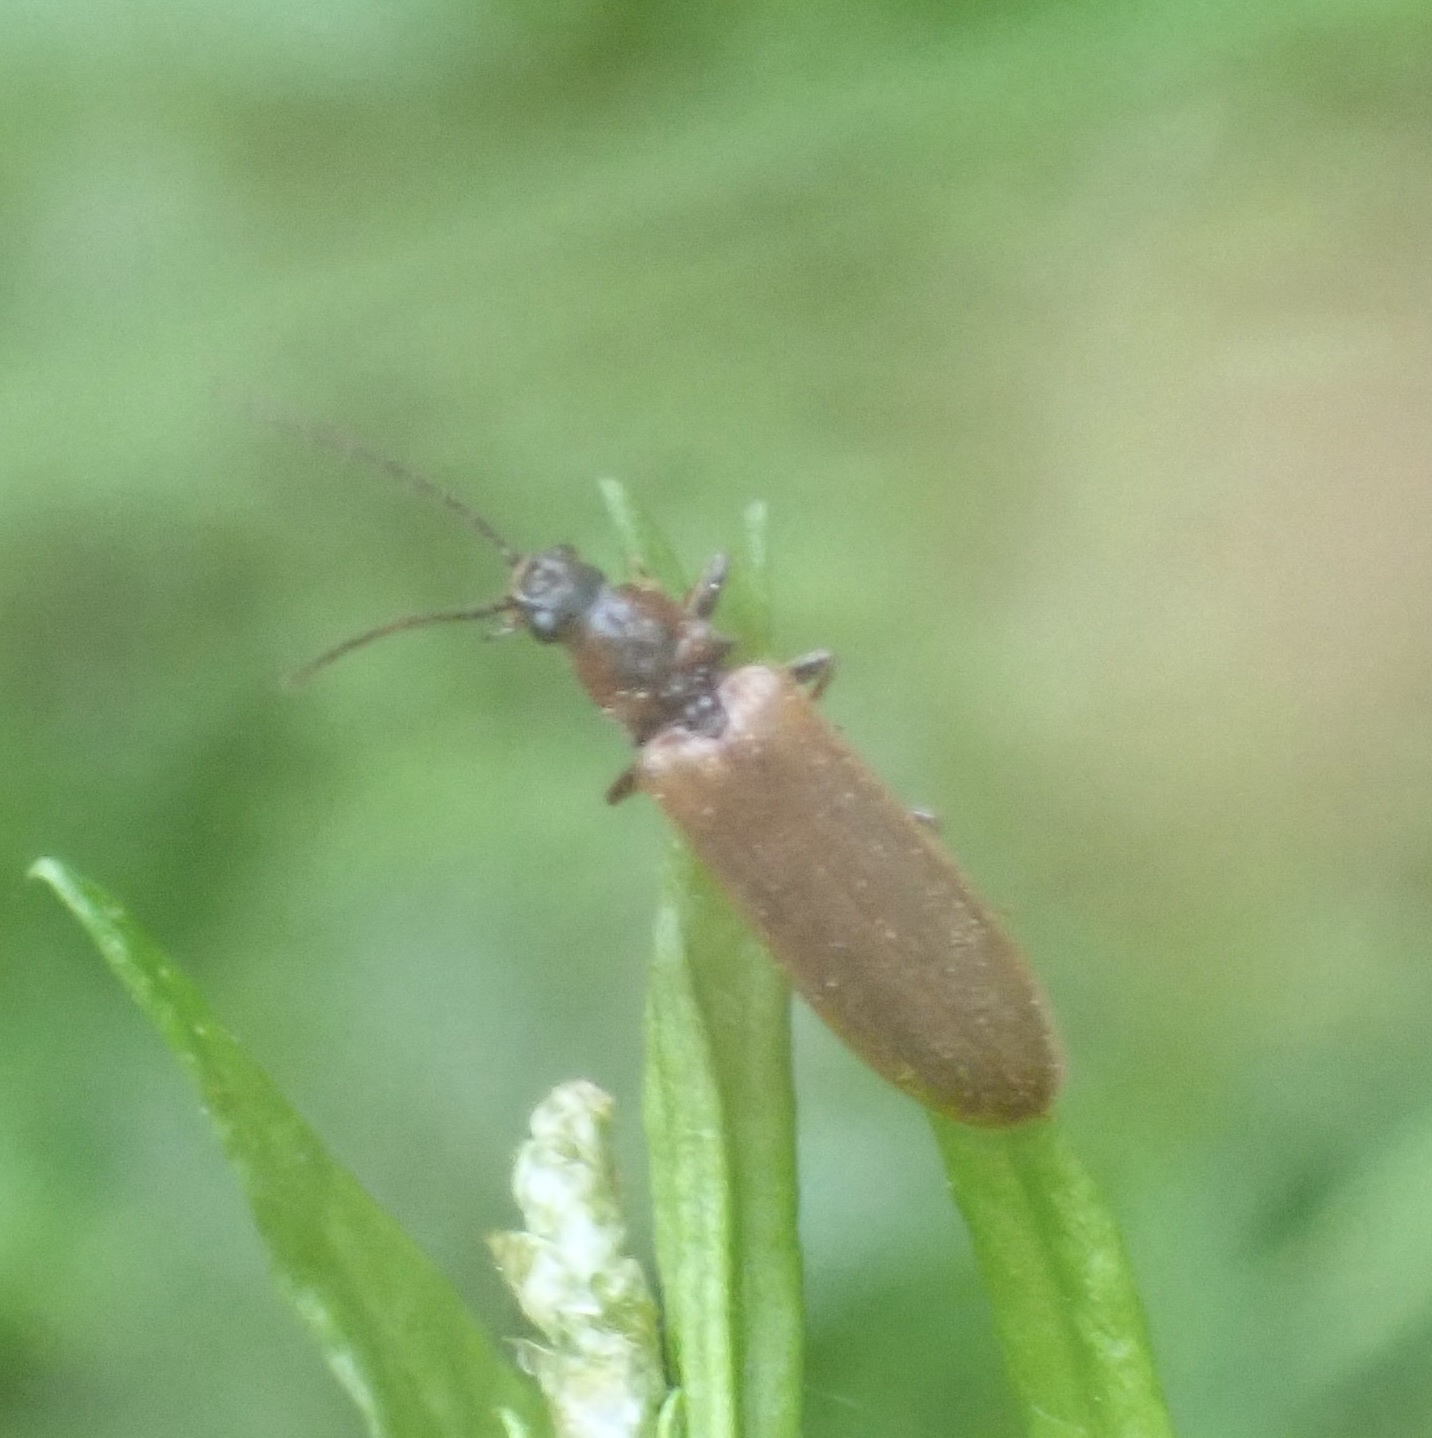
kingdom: Animalia
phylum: Arthropoda
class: Insecta
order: Coleoptera
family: Elateridae
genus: Denticollis
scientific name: Denticollis linearis
